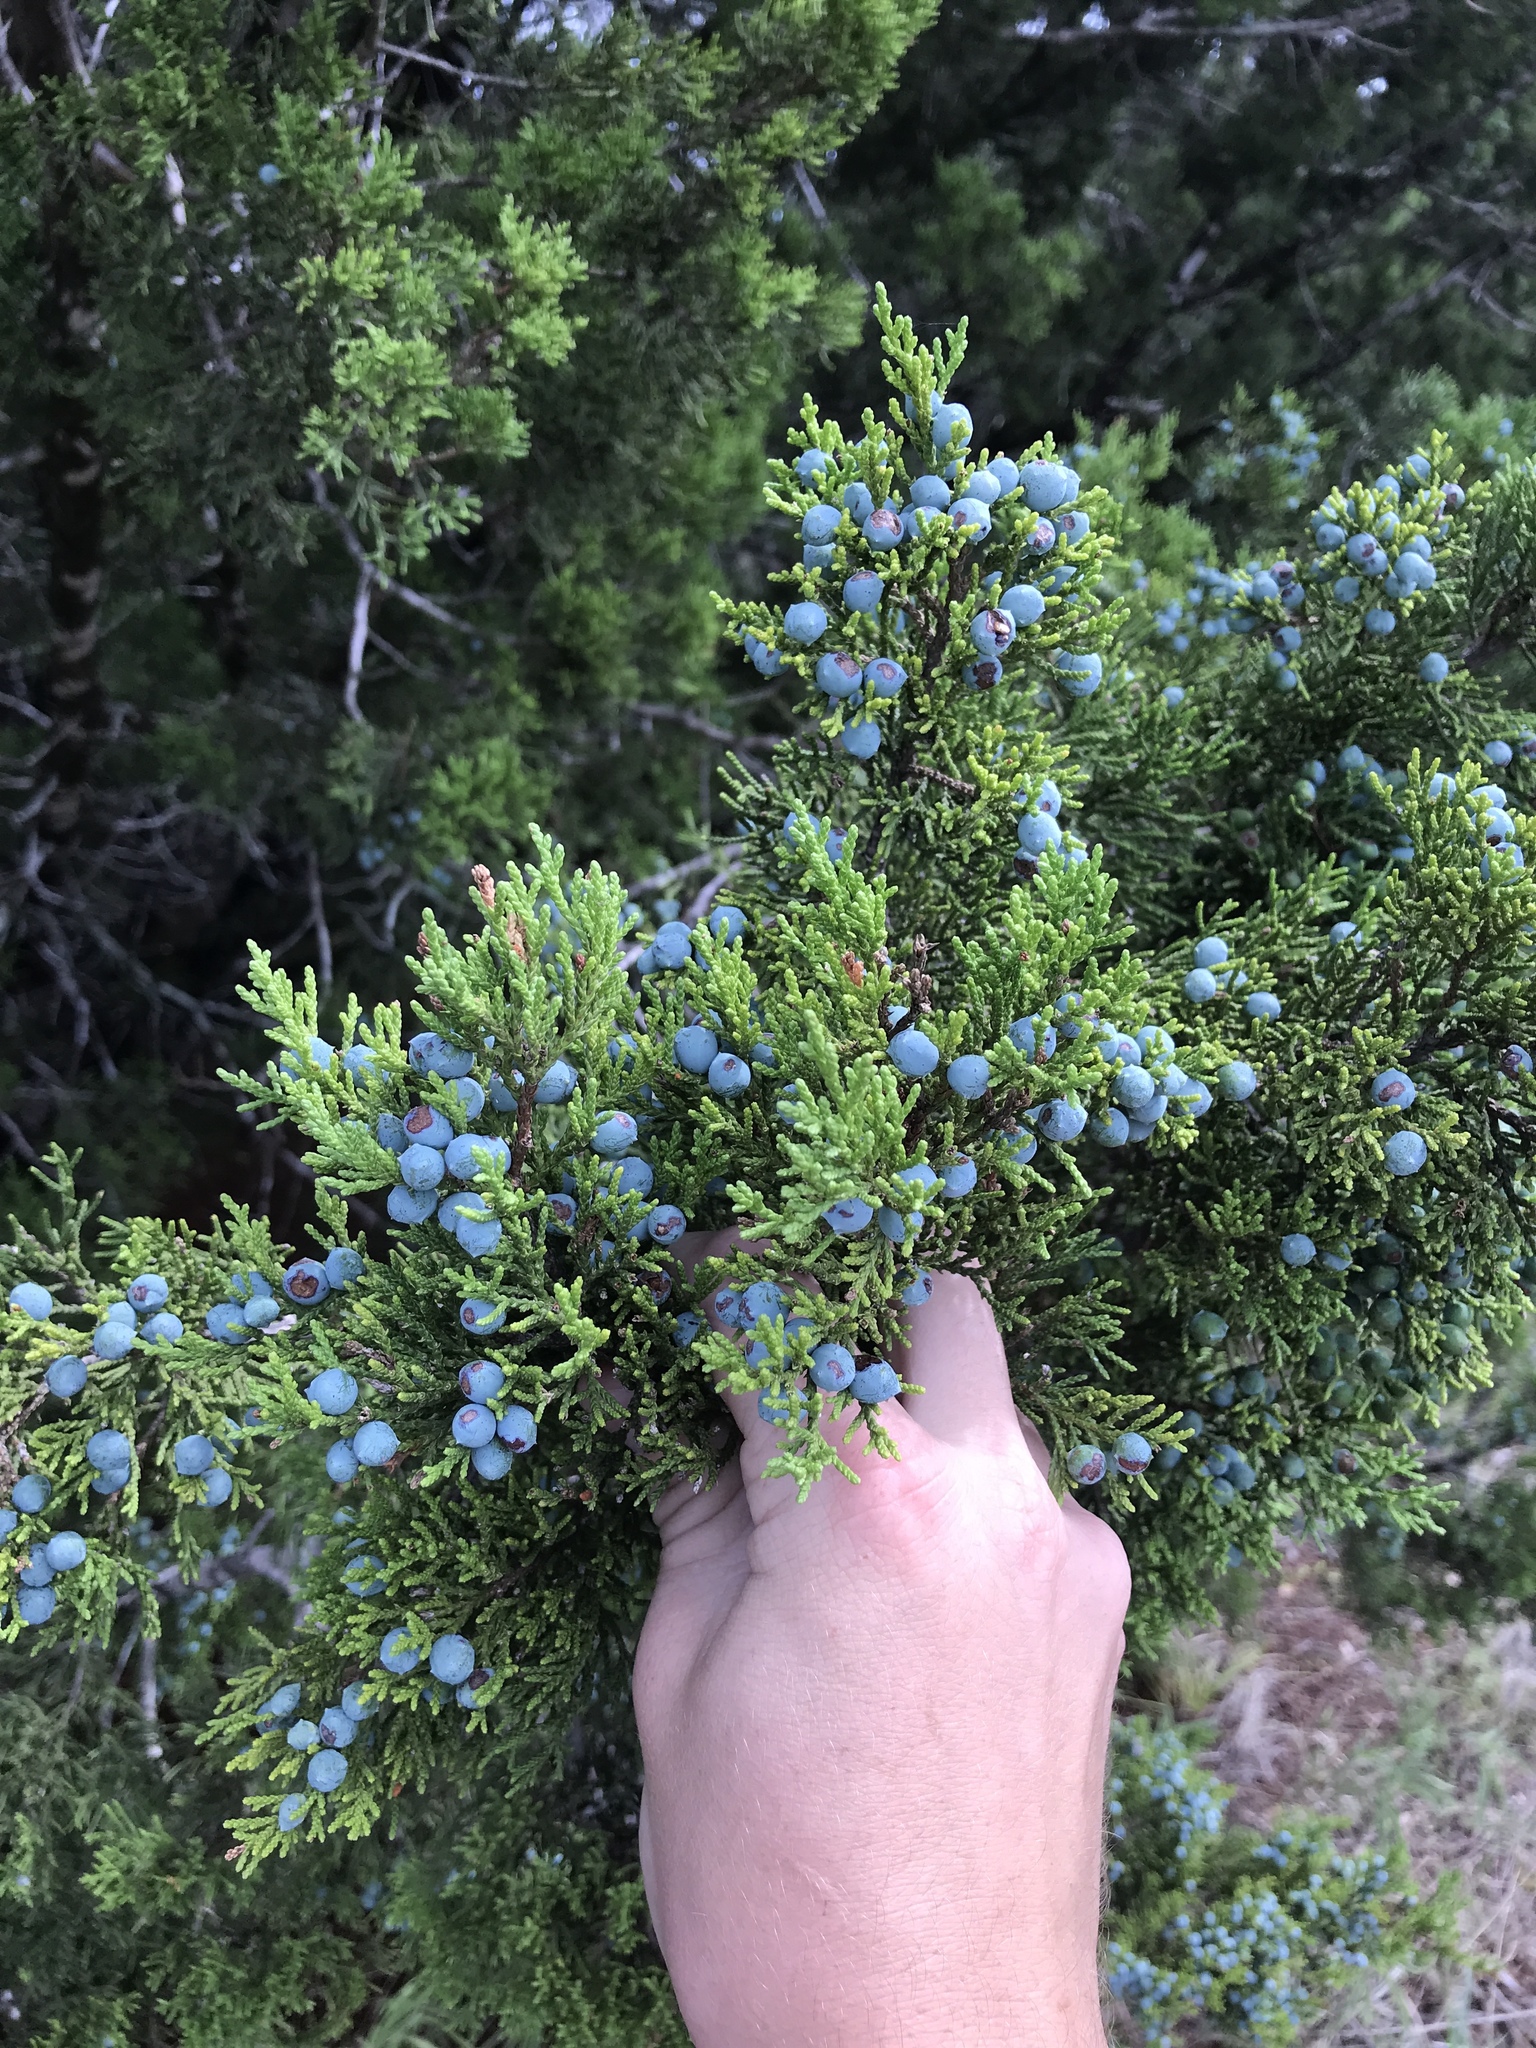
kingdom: Plantae
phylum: Tracheophyta
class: Pinopsida
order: Pinales
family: Cupressaceae
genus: Juniperus
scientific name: Juniperus ashei
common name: Mexican juniper
